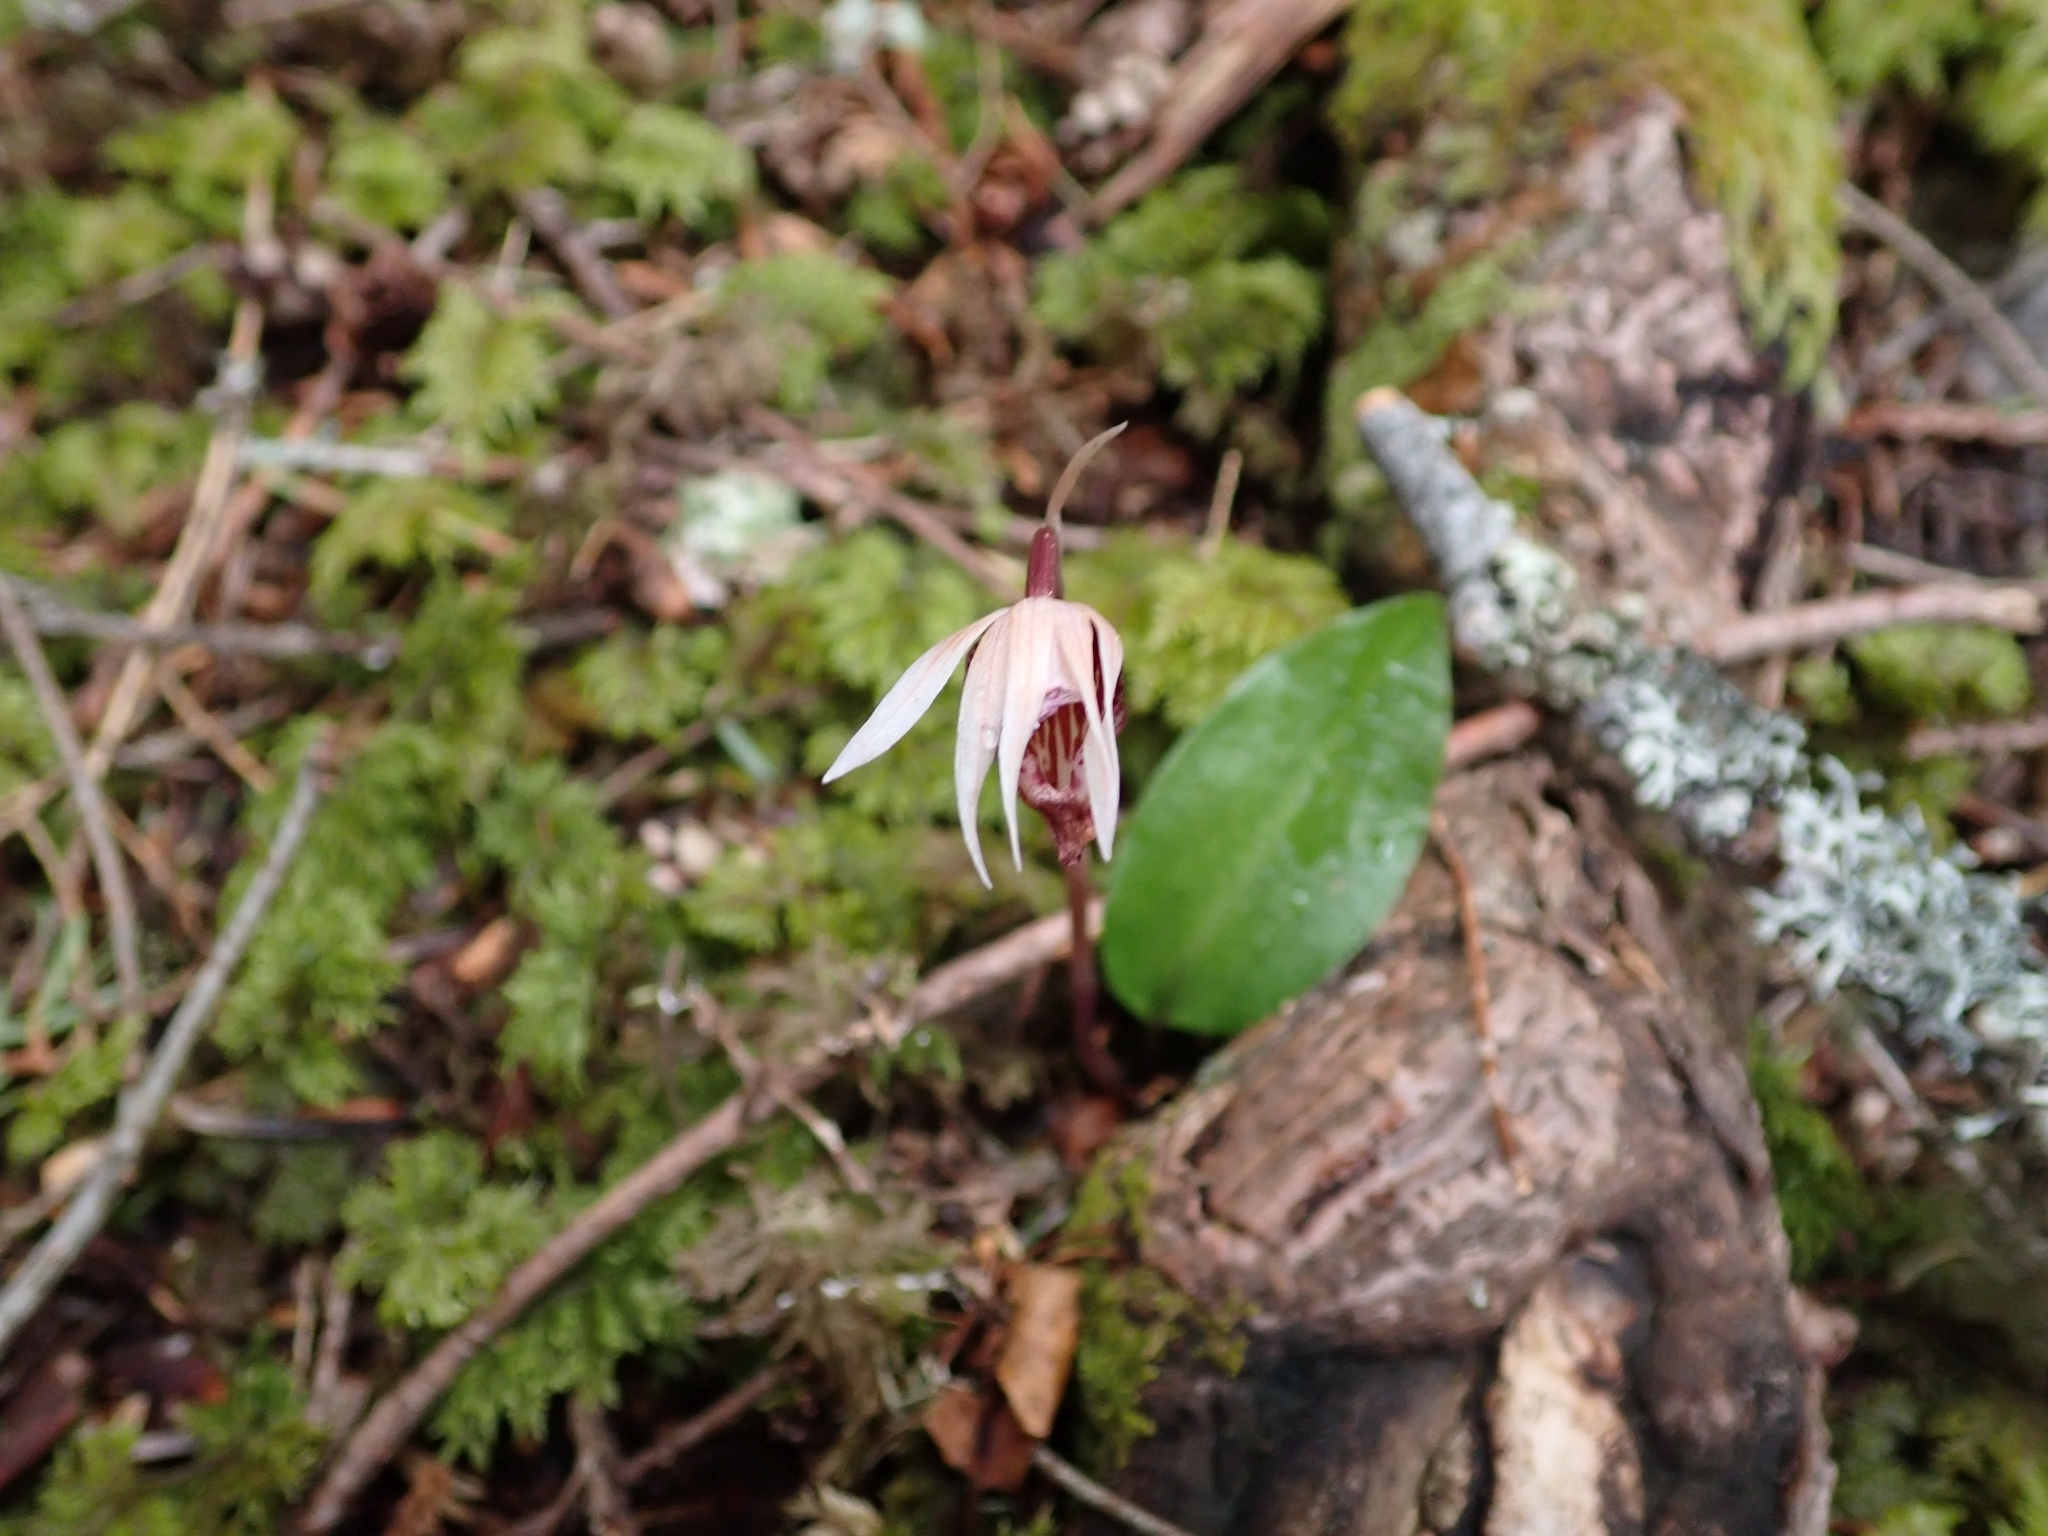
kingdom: Plantae
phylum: Tracheophyta
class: Liliopsida
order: Asparagales
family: Orchidaceae
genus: Calypso
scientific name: Calypso bulbosa
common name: Calypso
